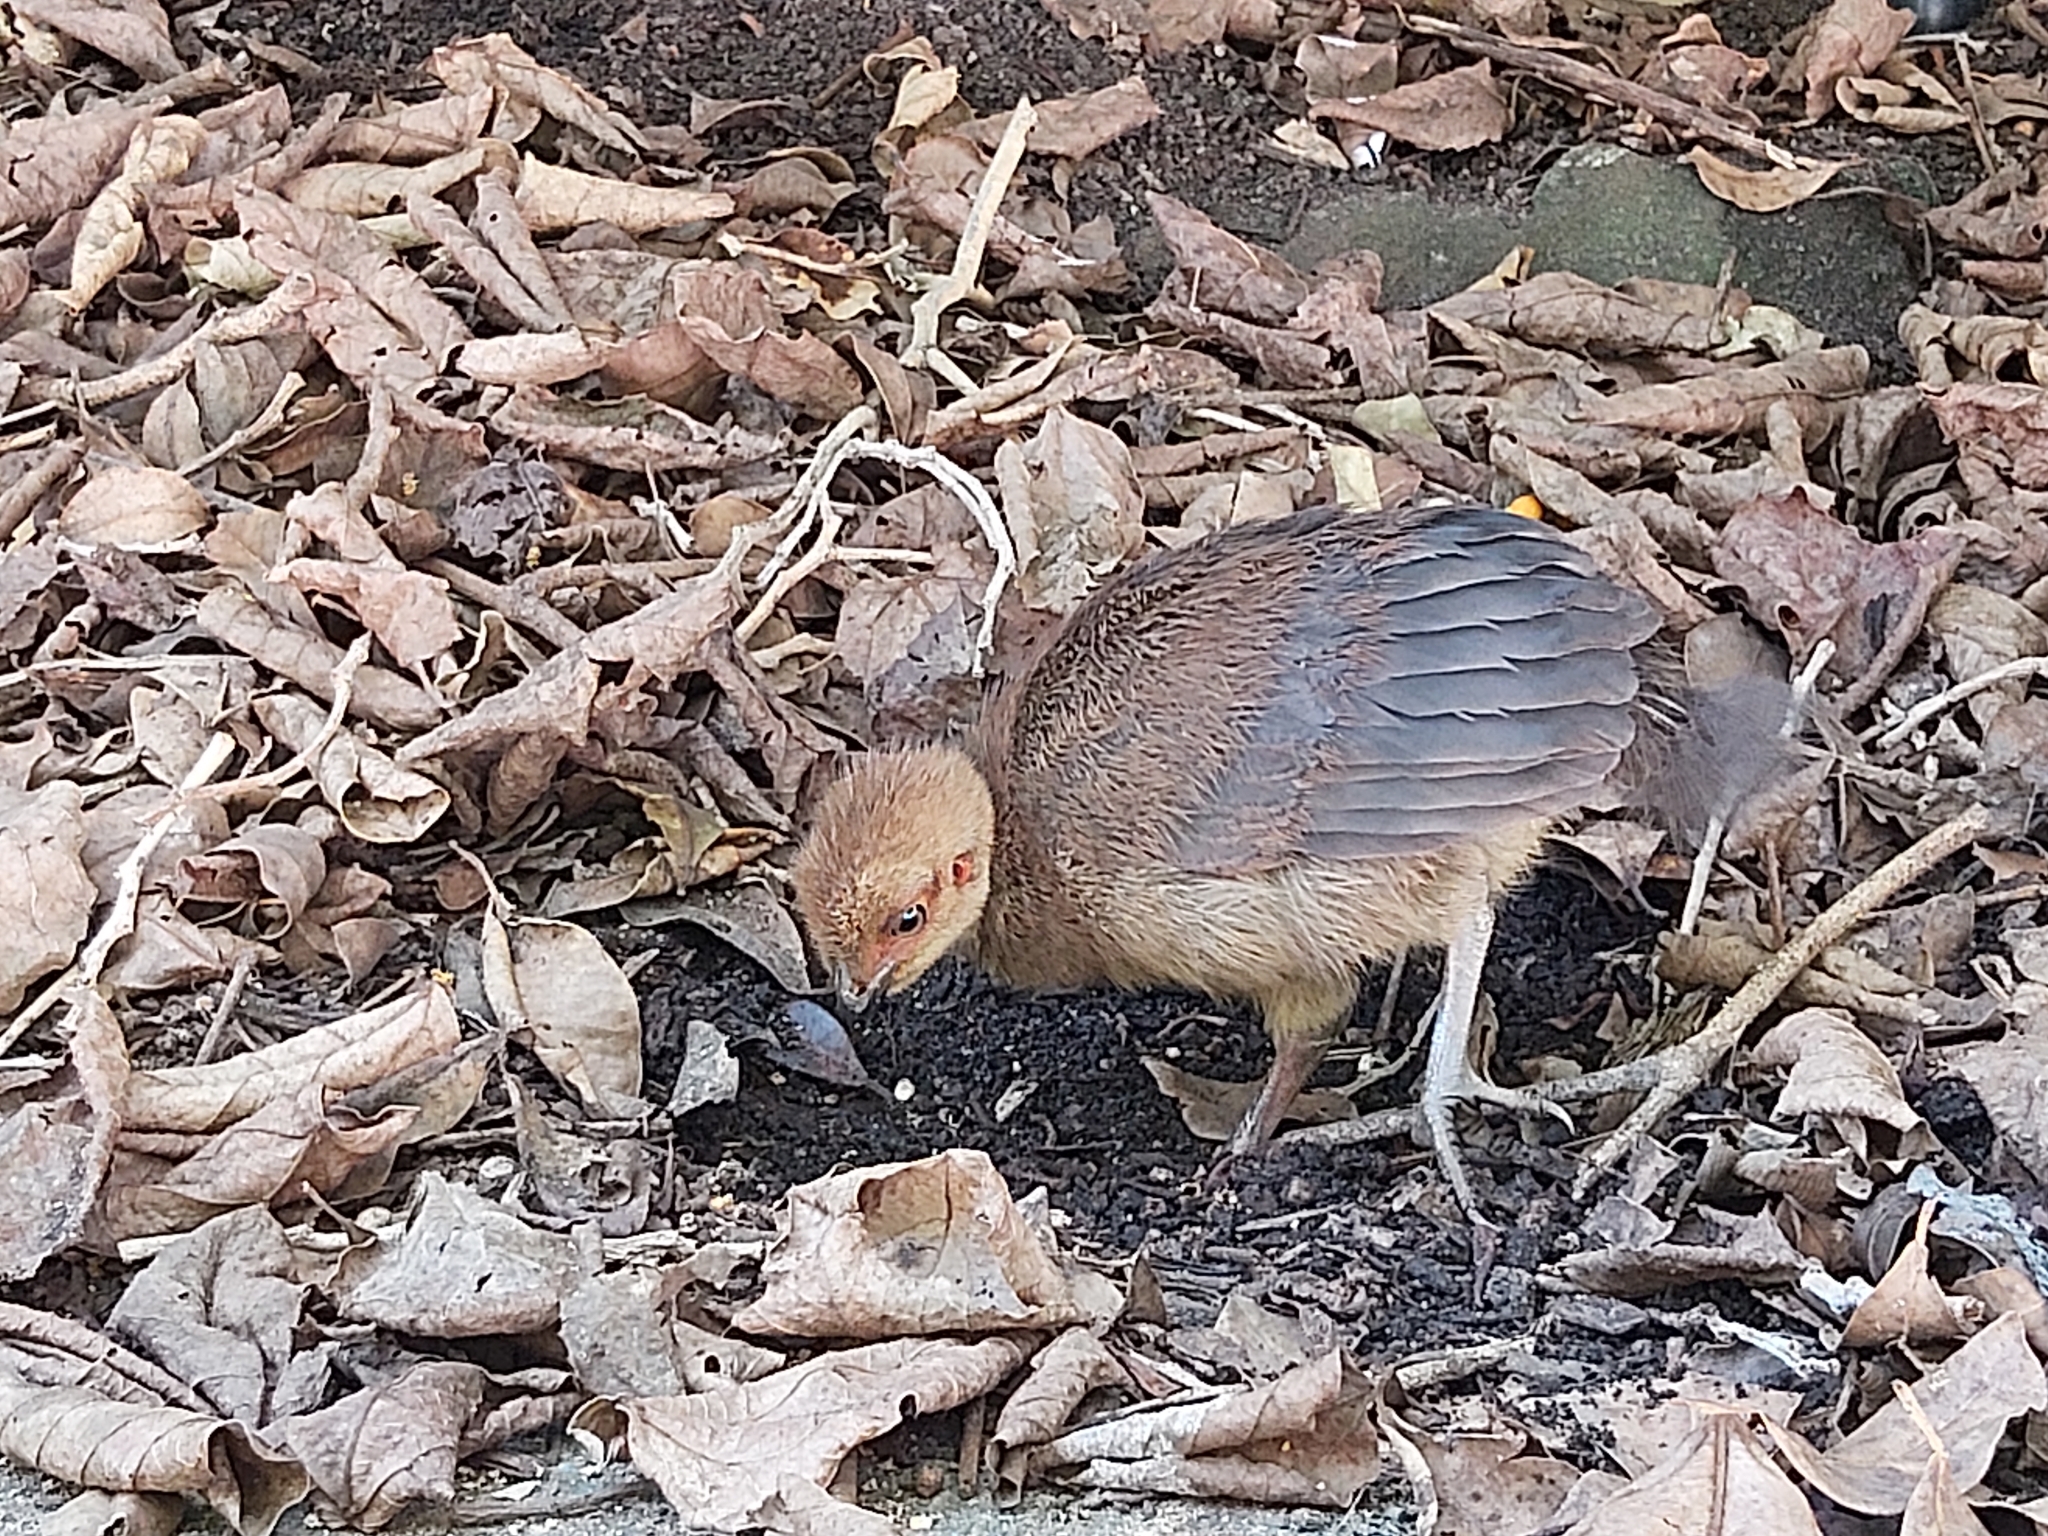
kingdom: Animalia
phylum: Chordata
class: Aves
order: Galliformes
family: Megapodiidae
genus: Alectura
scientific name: Alectura lathami
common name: Australian brushturkey
